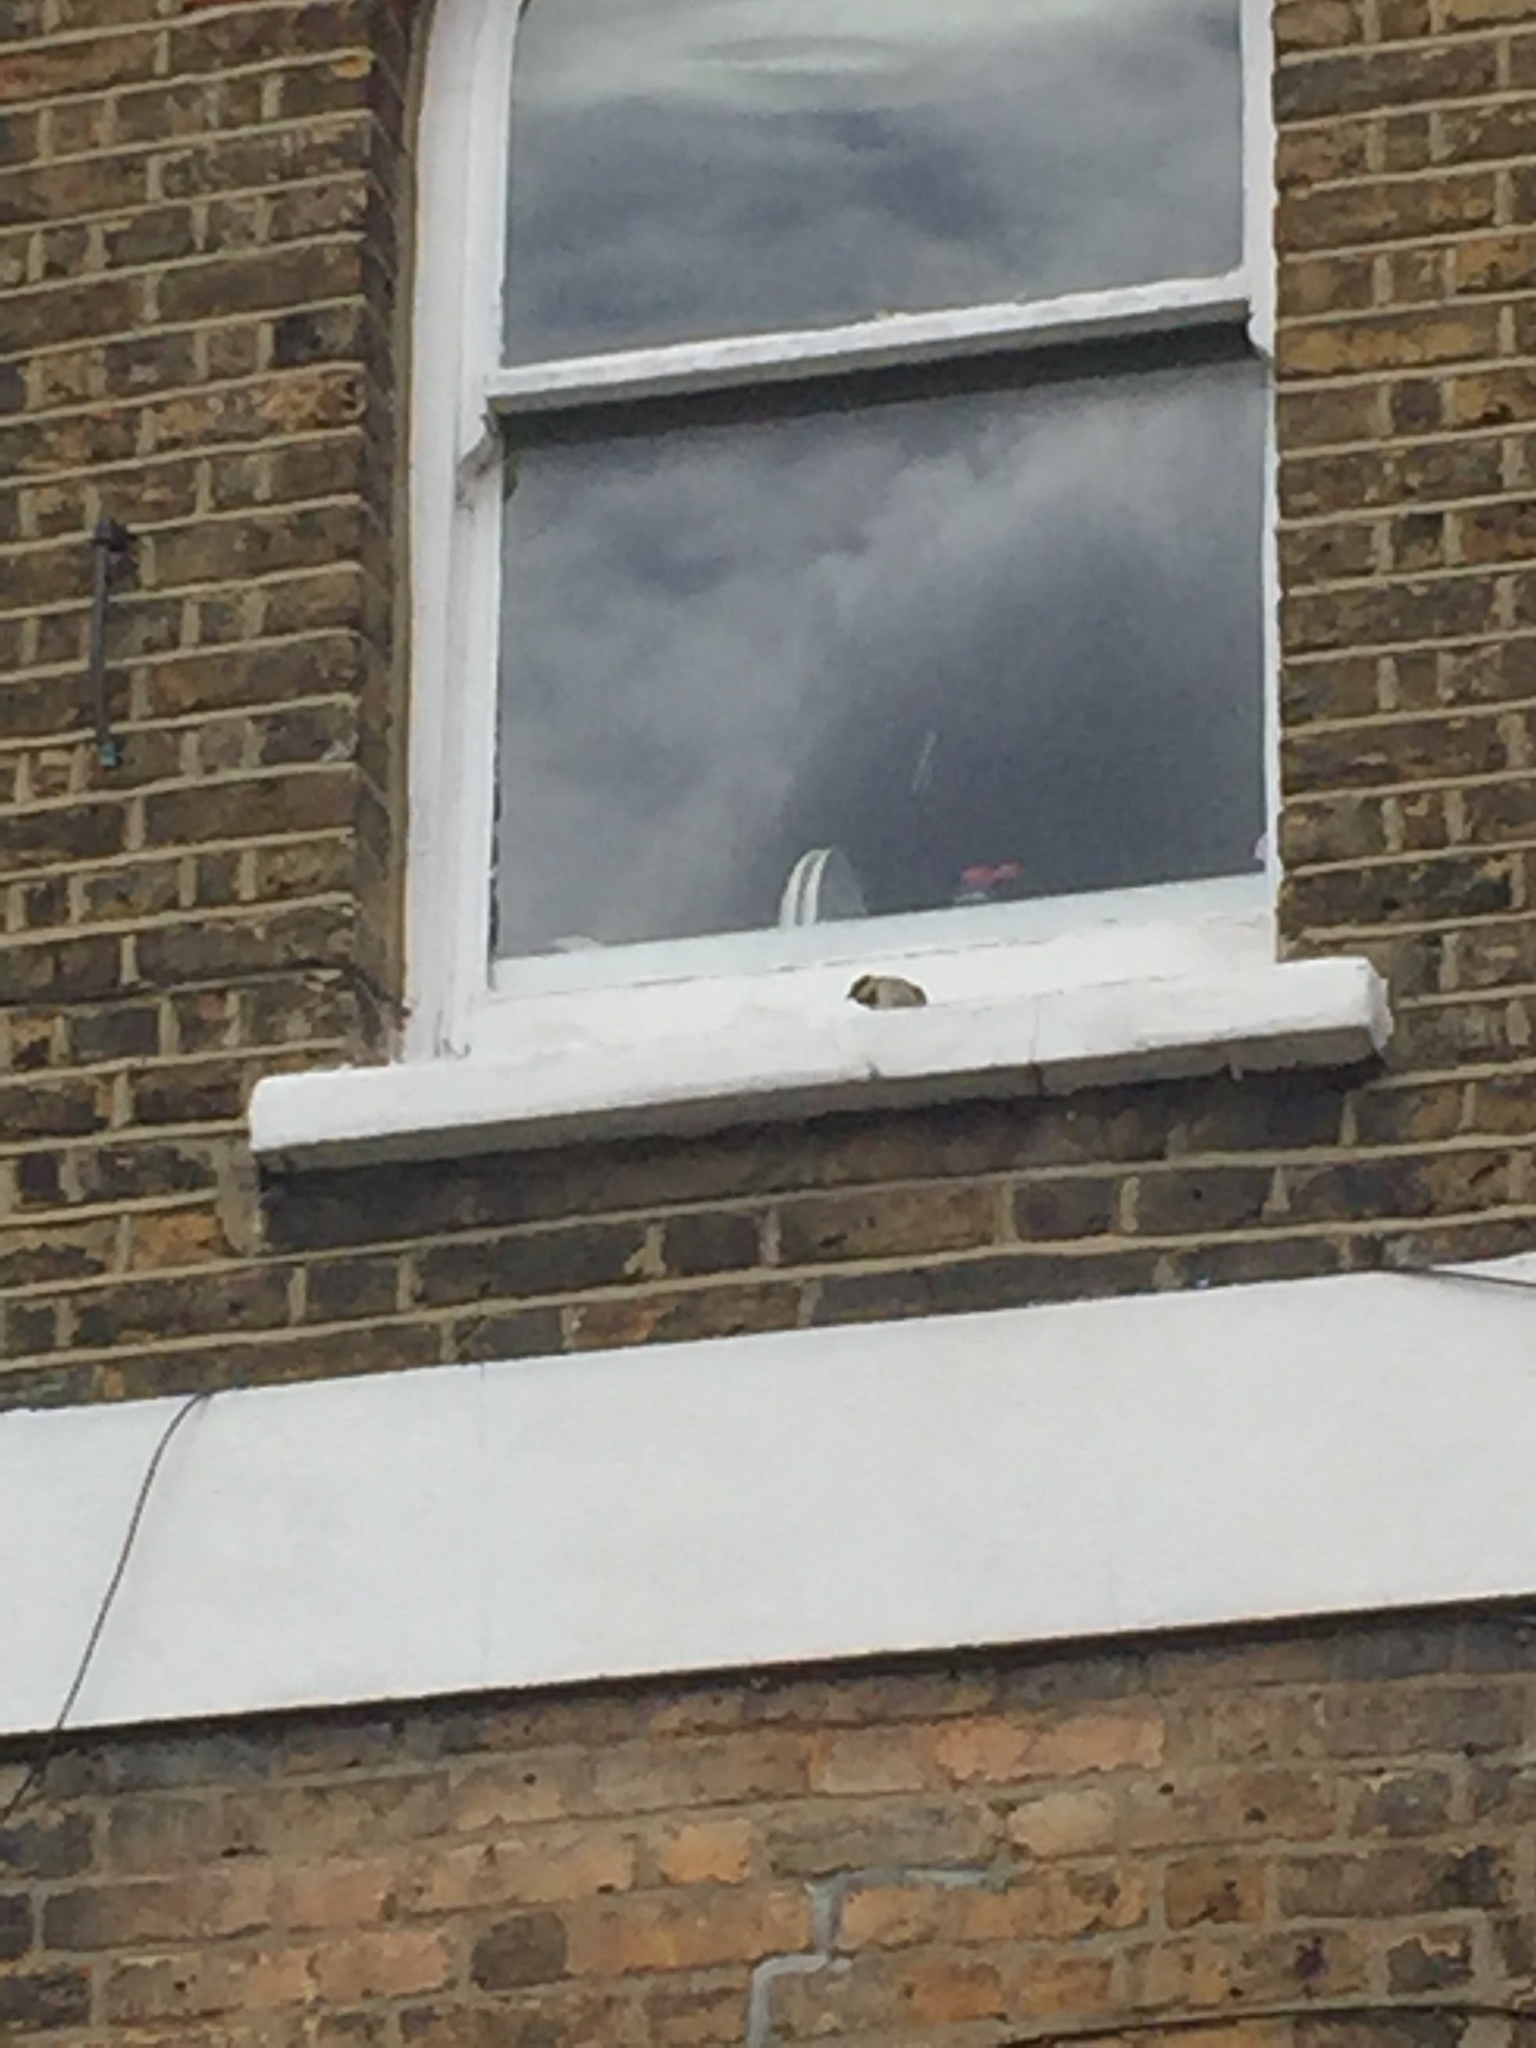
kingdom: Animalia
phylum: Chordata
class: Aves
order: Passeriformes
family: Passeridae
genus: Passer
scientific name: Passer domesticus
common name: House sparrow
